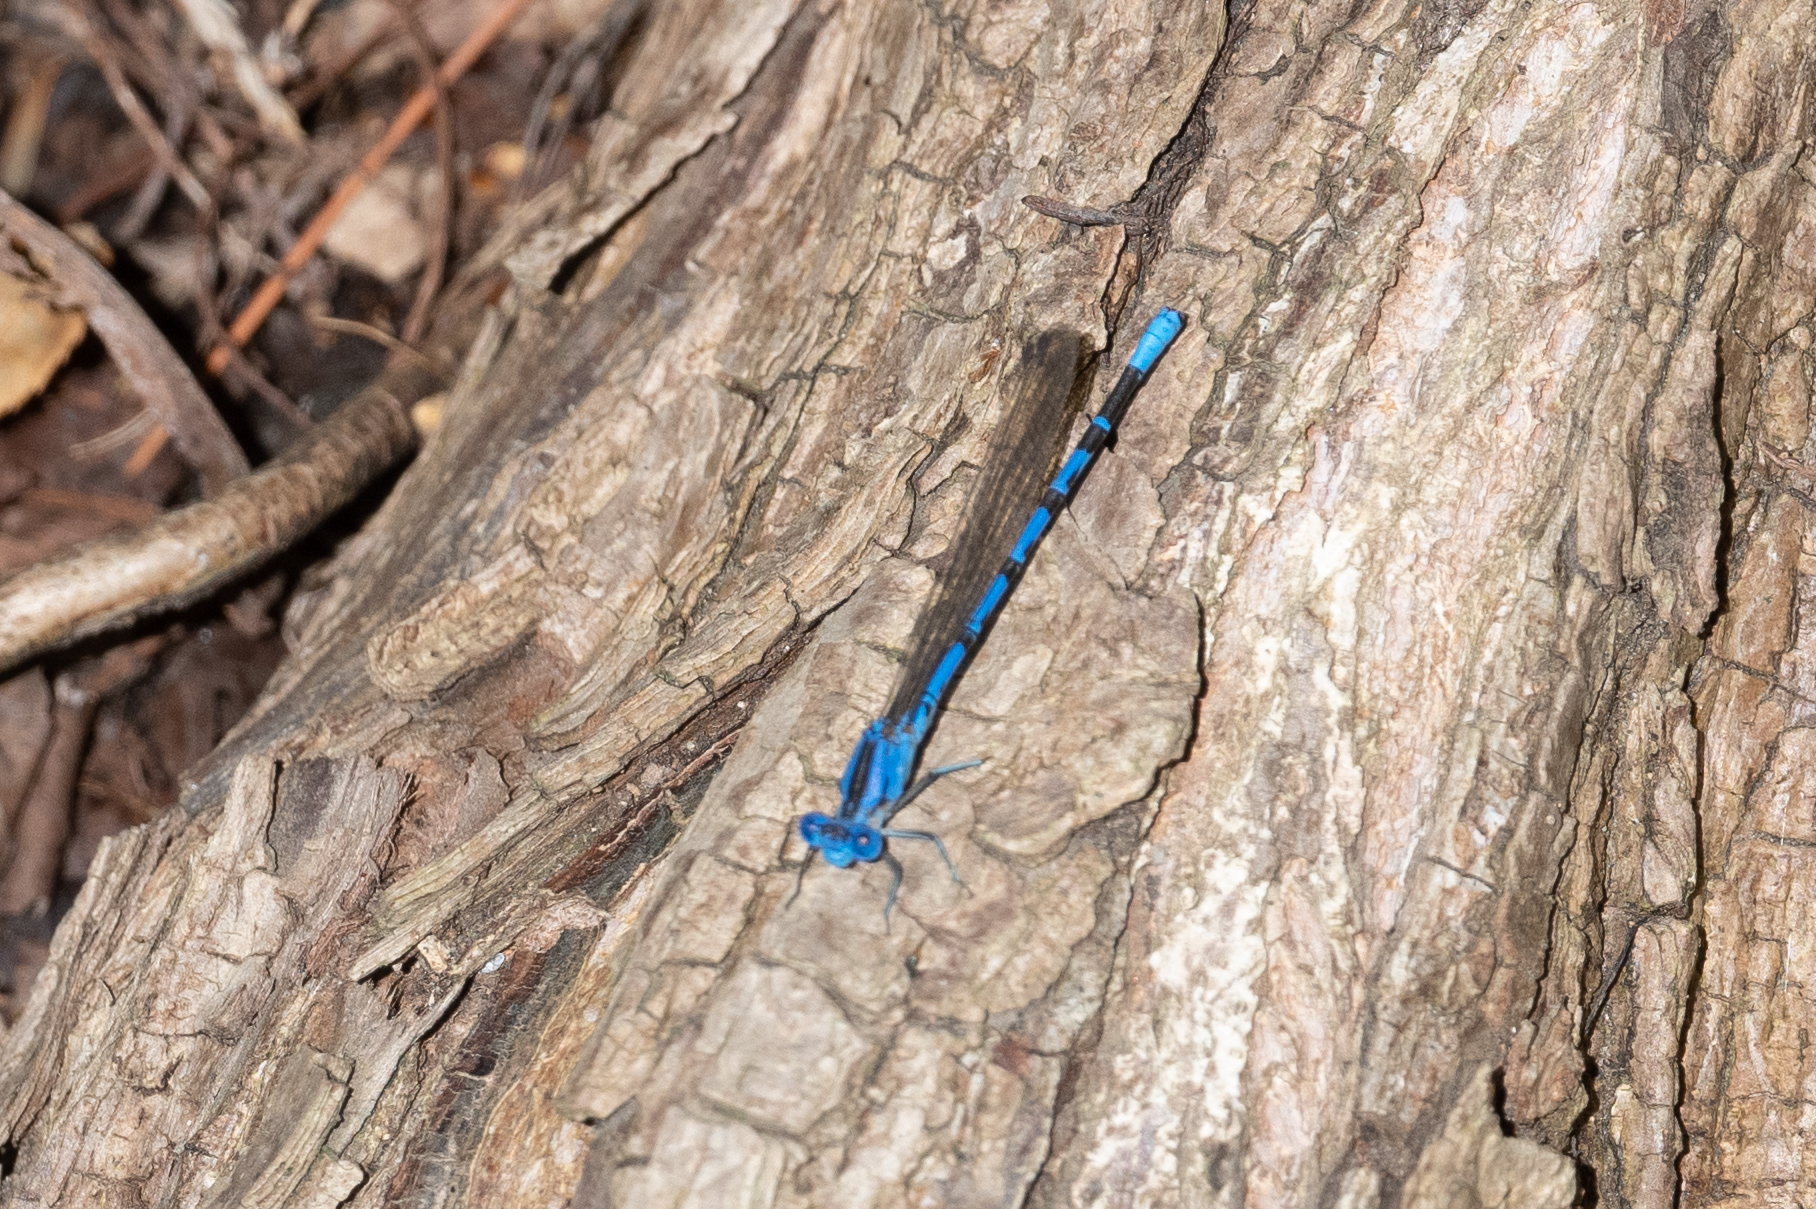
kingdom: Animalia
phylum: Arthropoda
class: Insecta
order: Odonata
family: Coenagrionidae
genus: Argia
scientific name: Argia vivida
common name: Vivid dancer
